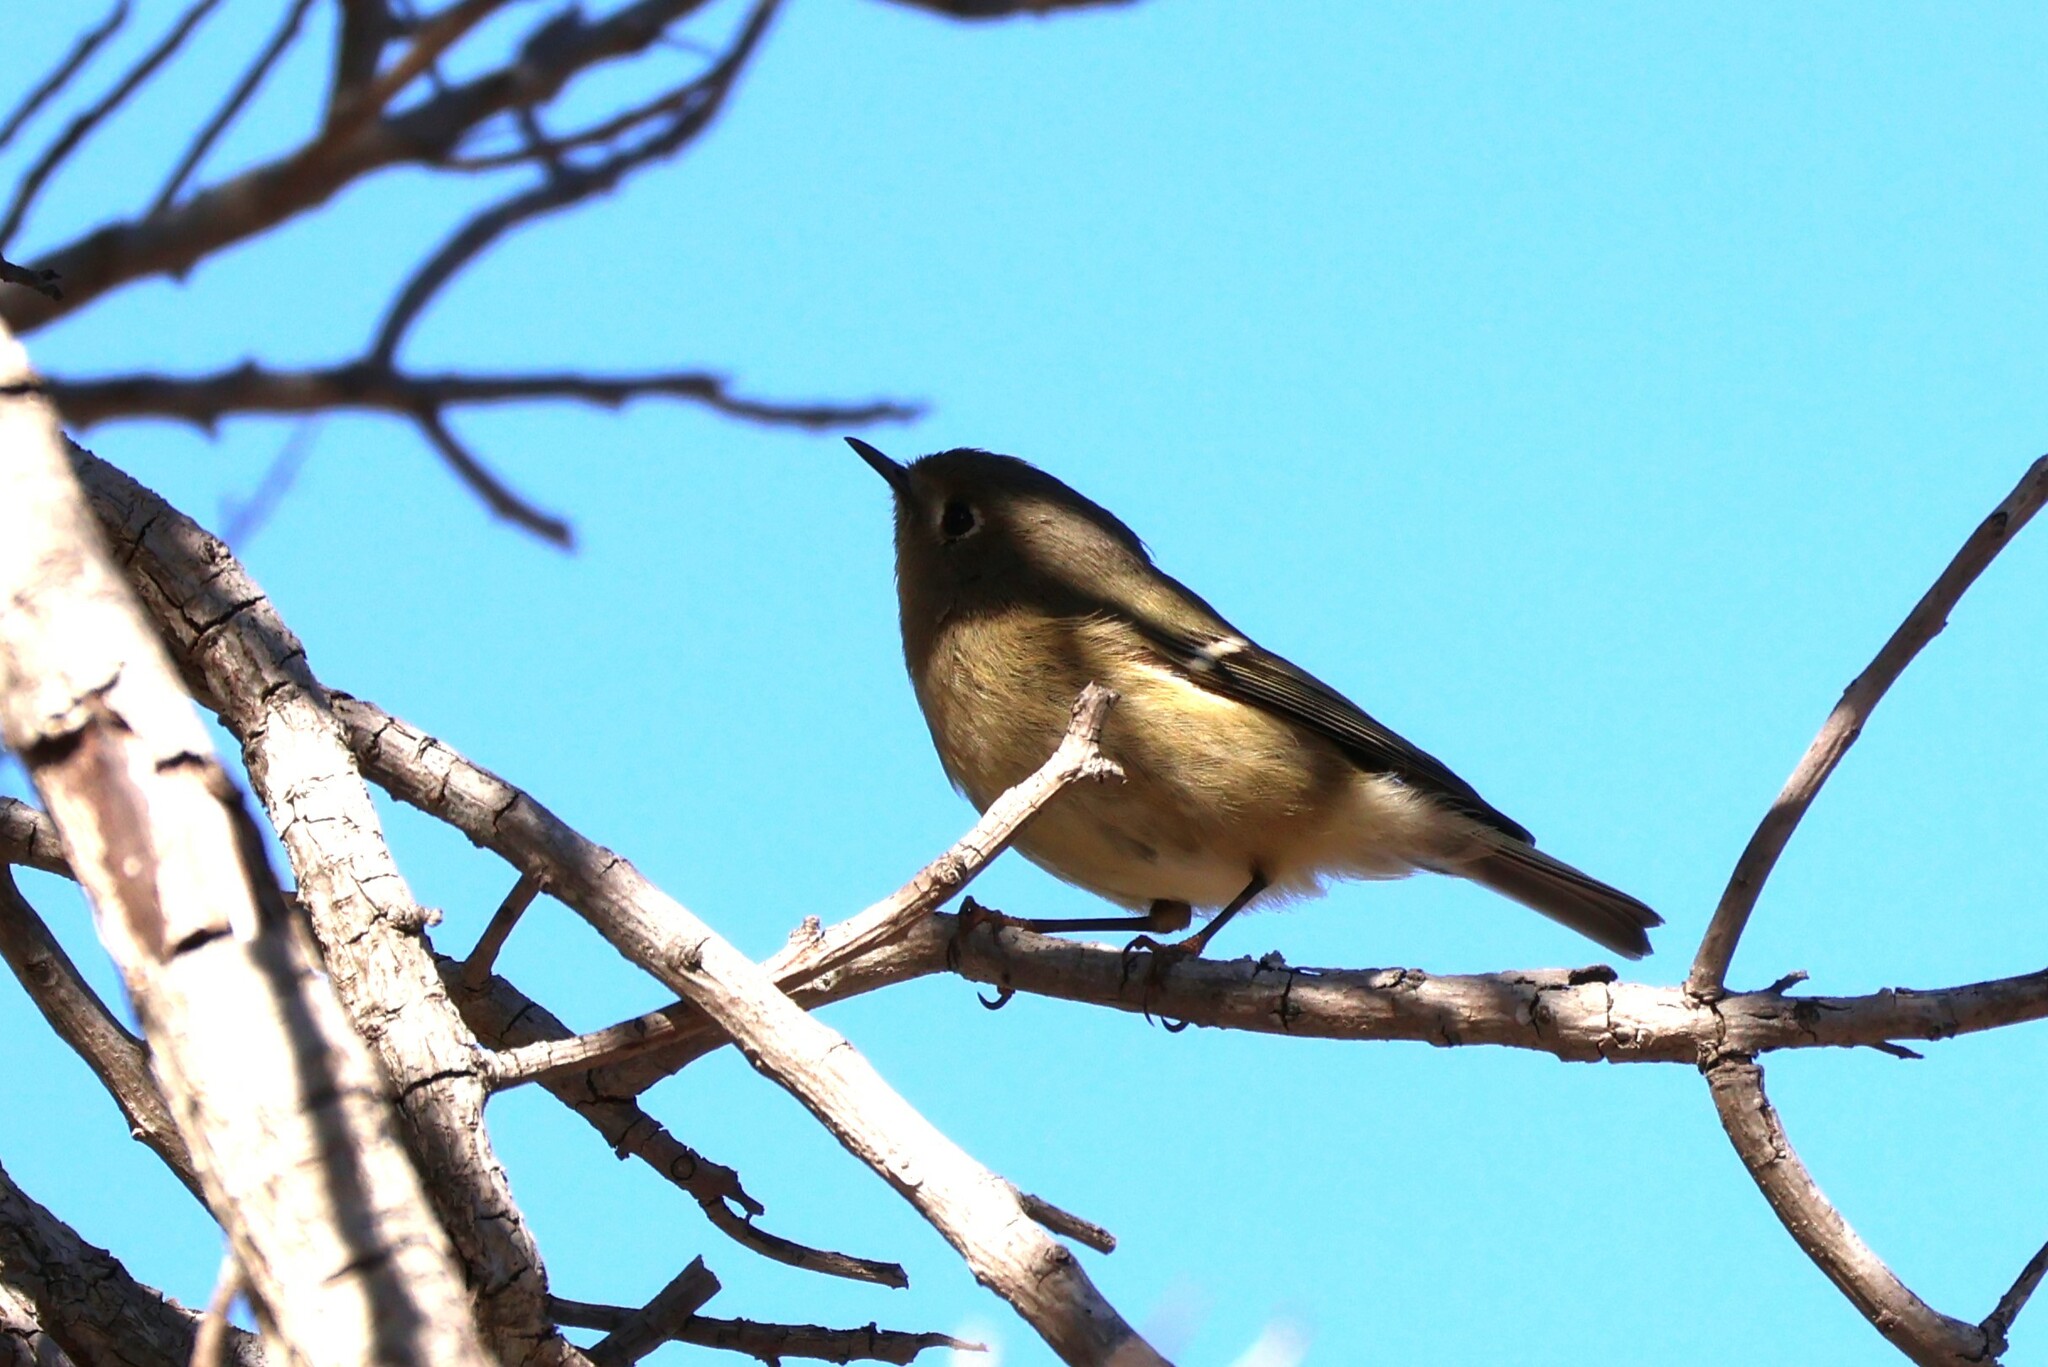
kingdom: Animalia
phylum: Chordata
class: Aves
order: Passeriformes
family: Regulidae
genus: Regulus
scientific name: Regulus calendula
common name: Ruby-crowned kinglet
